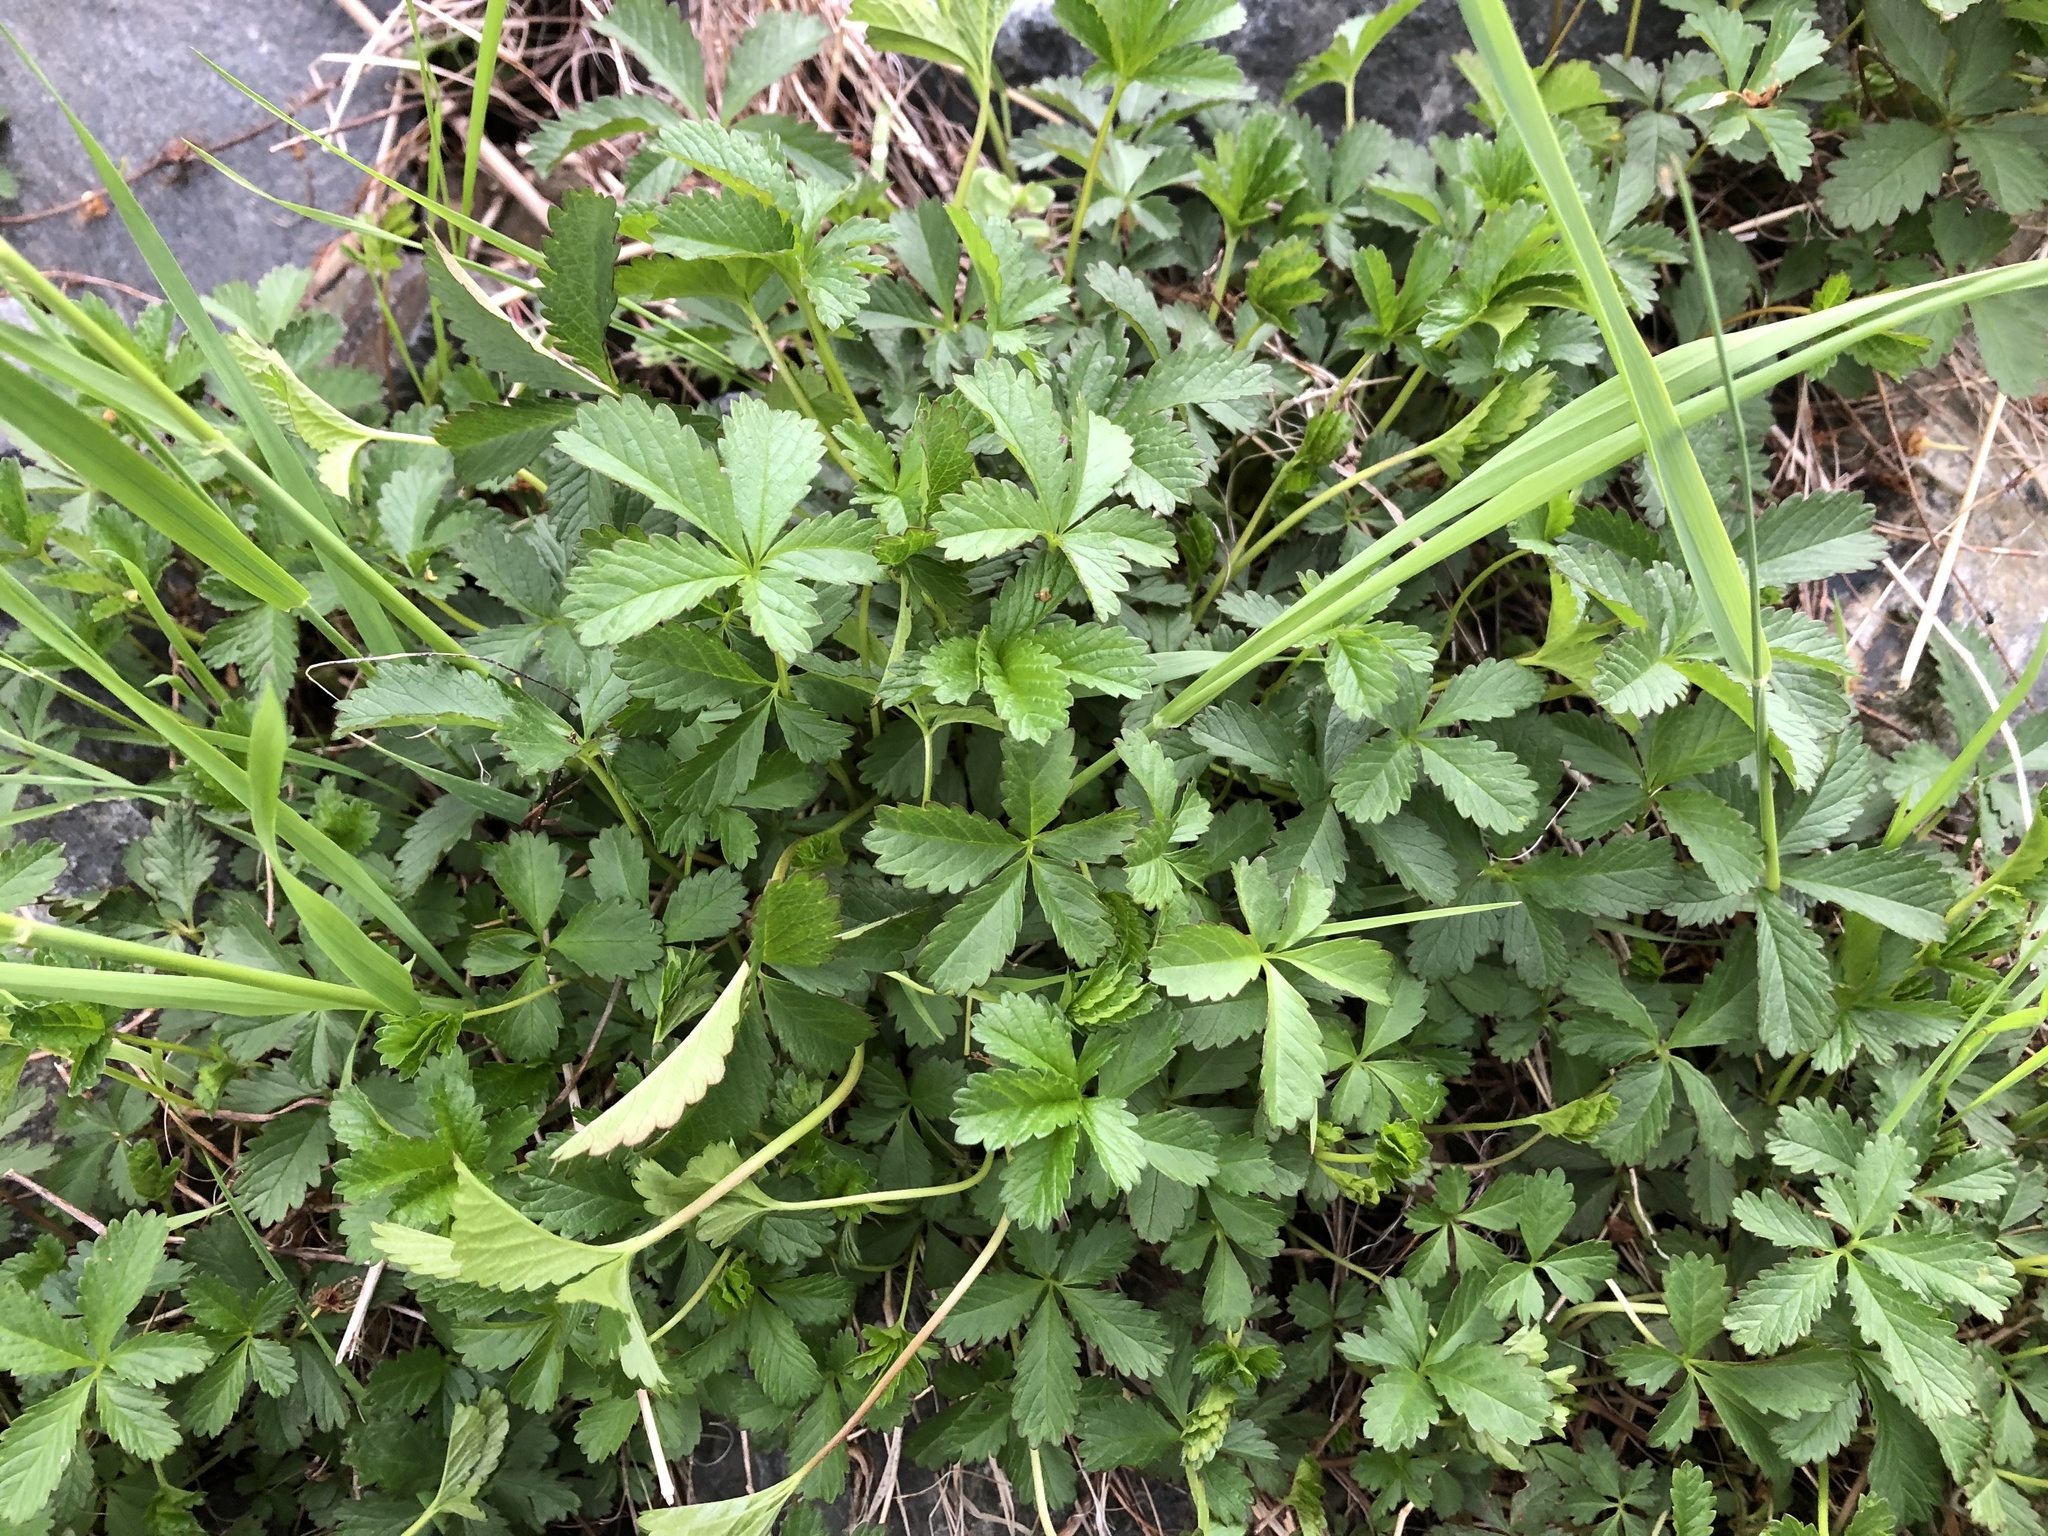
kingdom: Plantae
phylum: Tracheophyta
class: Magnoliopsida
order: Rosales
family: Rosaceae
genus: Potentilla
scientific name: Potentilla reptans
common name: Creeping cinquefoil
